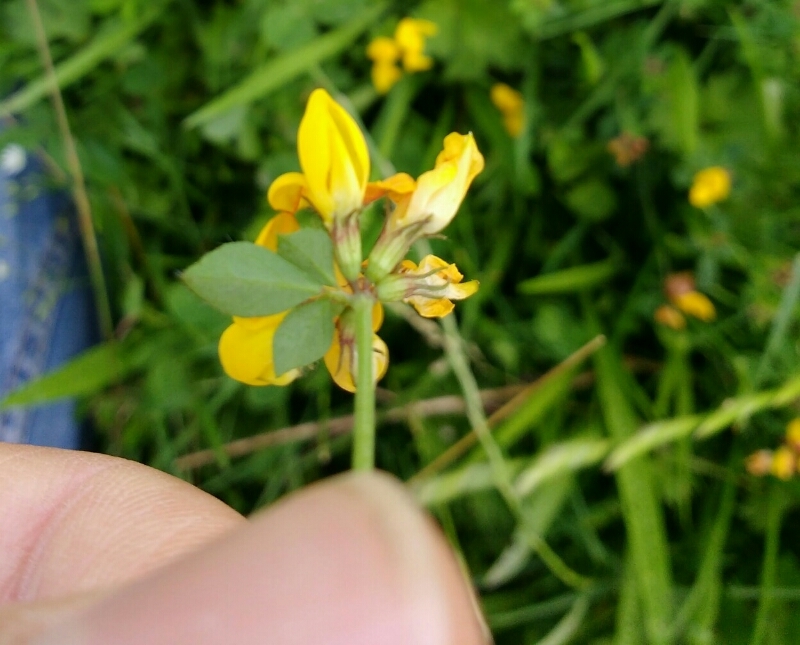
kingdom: Plantae
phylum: Tracheophyta
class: Magnoliopsida
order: Fabales
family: Fabaceae
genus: Lotus
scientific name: Lotus pedunculatus
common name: Greater birdsfoot-trefoil
